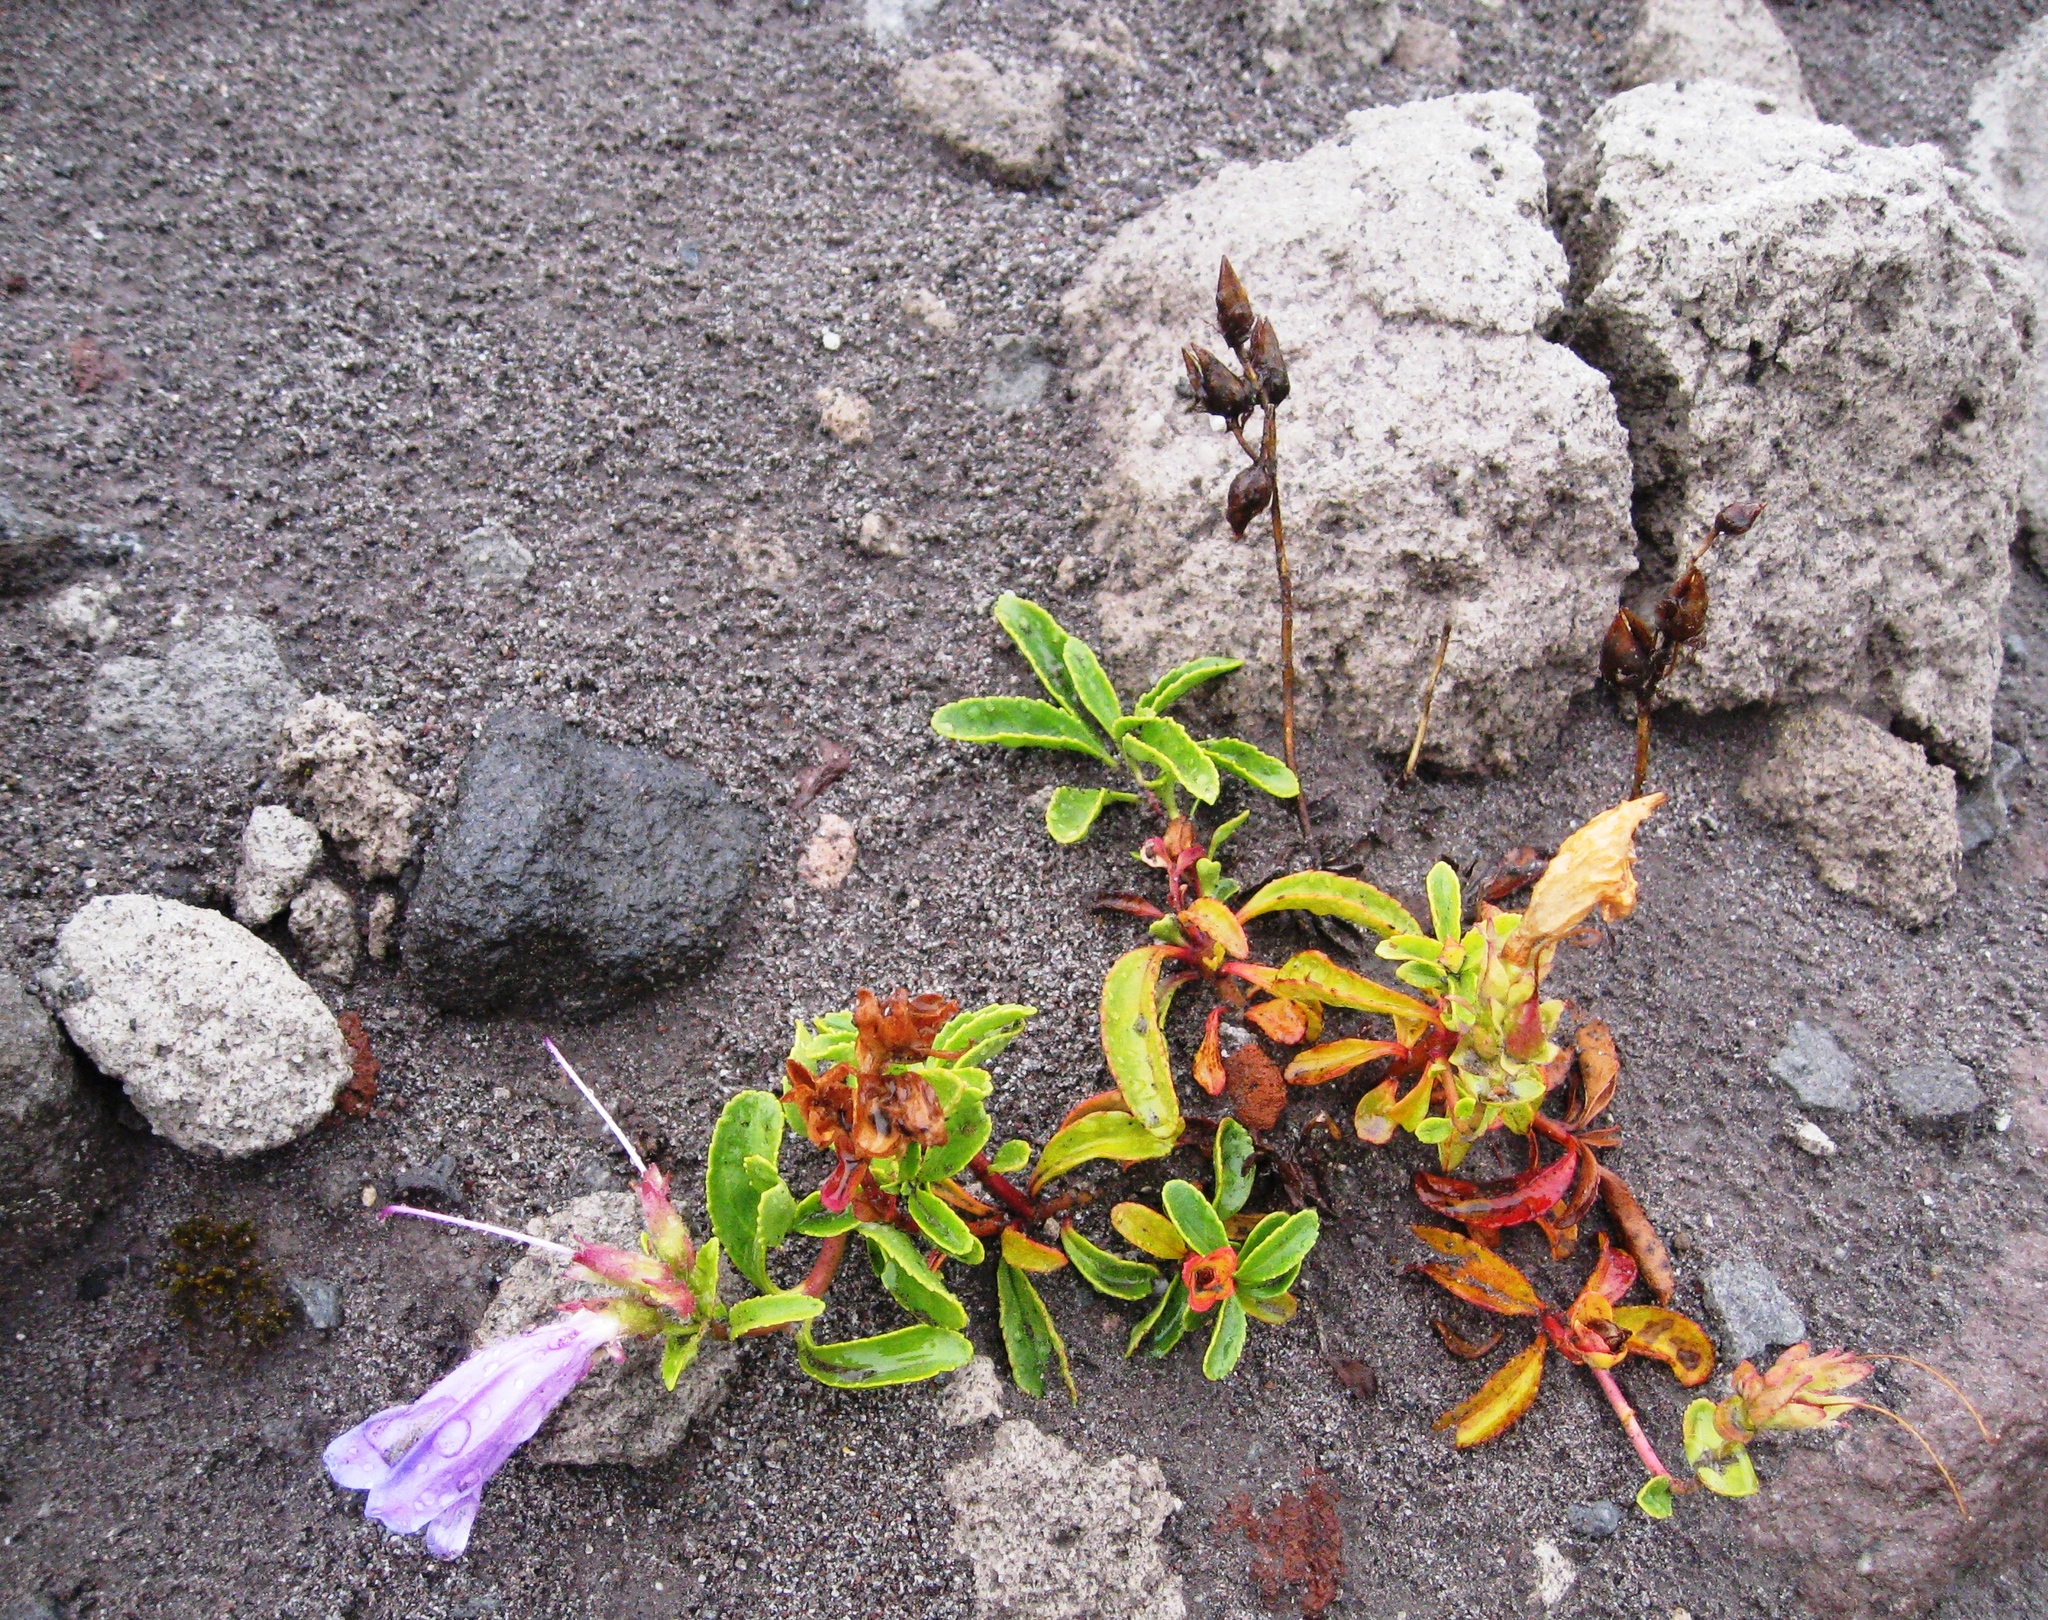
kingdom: Plantae
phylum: Tracheophyta
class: Magnoliopsida
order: Lamiales
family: Plantaginaceae
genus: Penstemon
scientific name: Penstemon cardwellii
